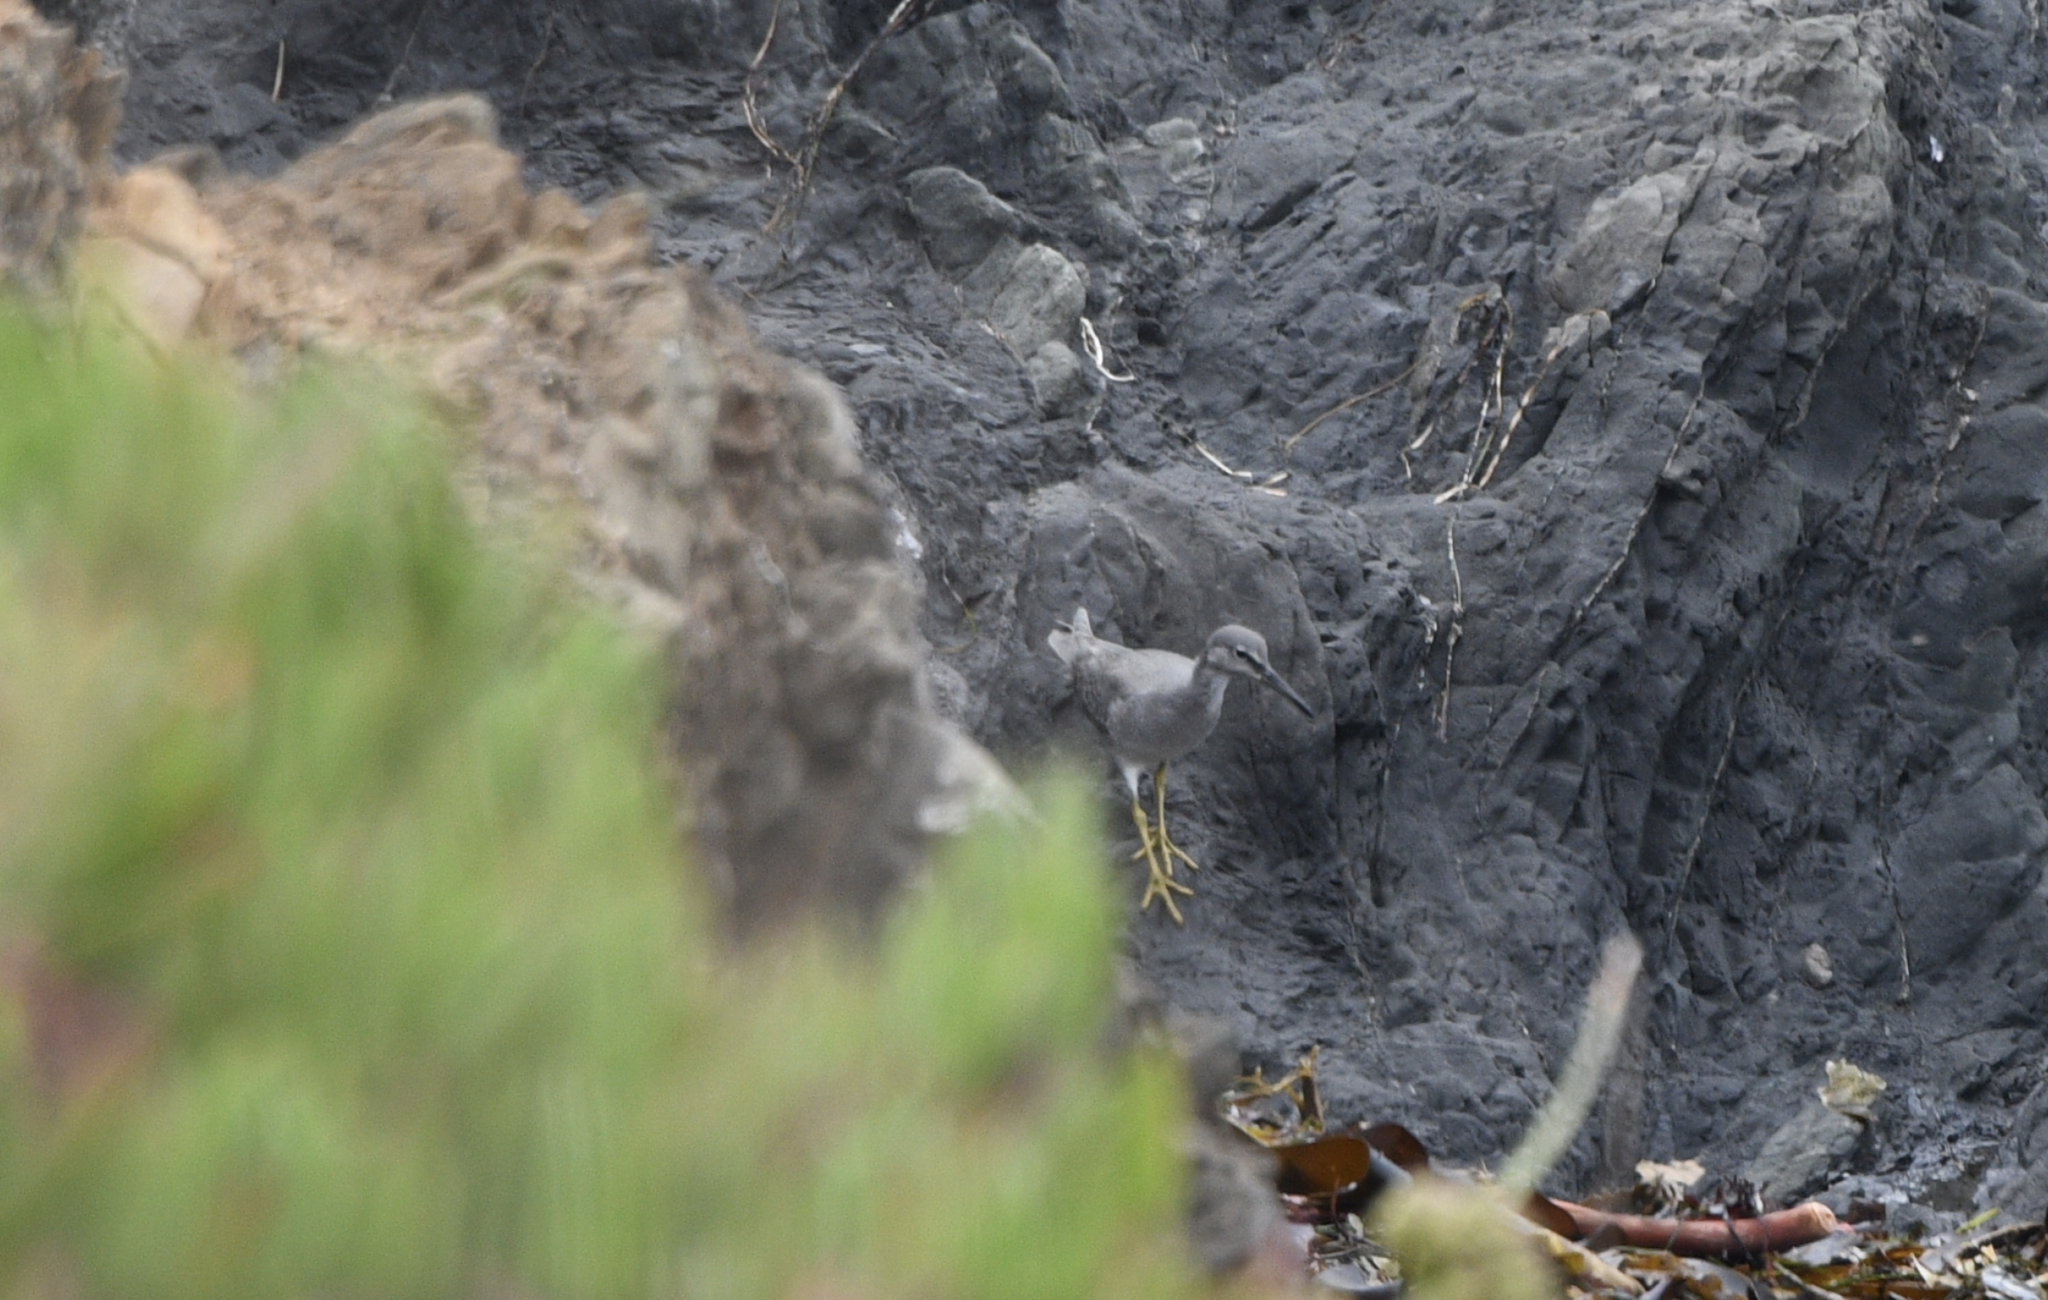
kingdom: Animalia
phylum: Chordata
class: Aves
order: Charadriiformes
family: Scolopacidae
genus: Tringa
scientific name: Tringa incana
